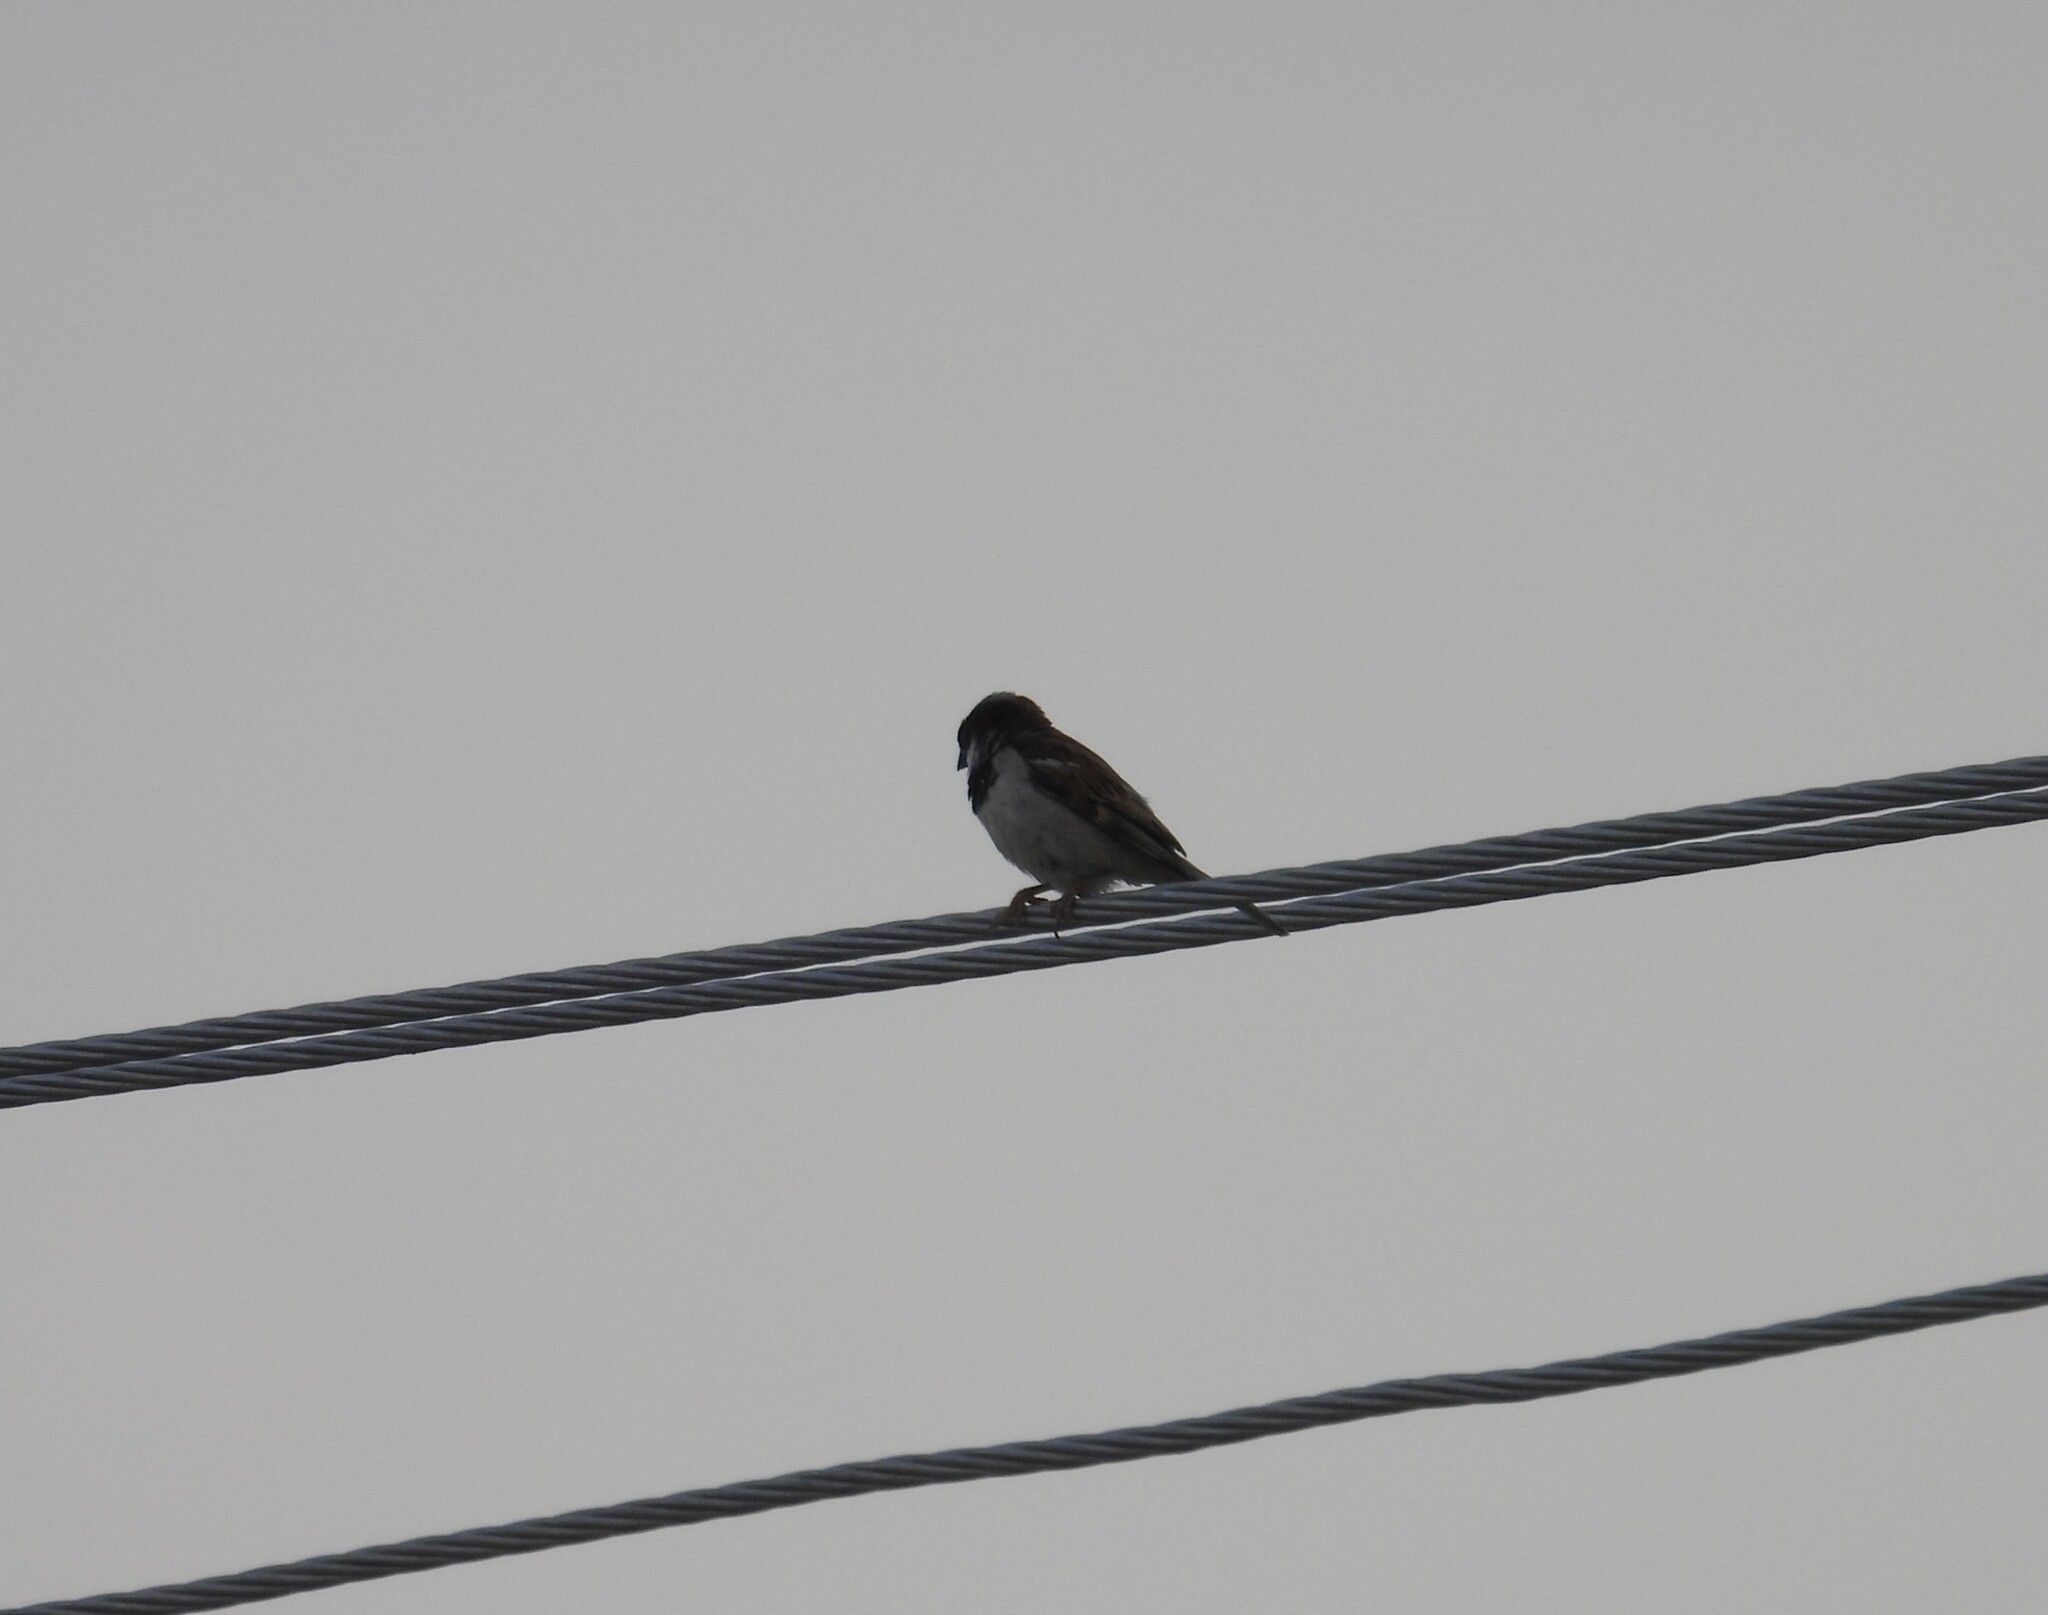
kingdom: Animalia
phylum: Chordata
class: Aves
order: Passeriformes
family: Passeridae
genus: Passer
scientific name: Passer domesticus
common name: House sparrow
